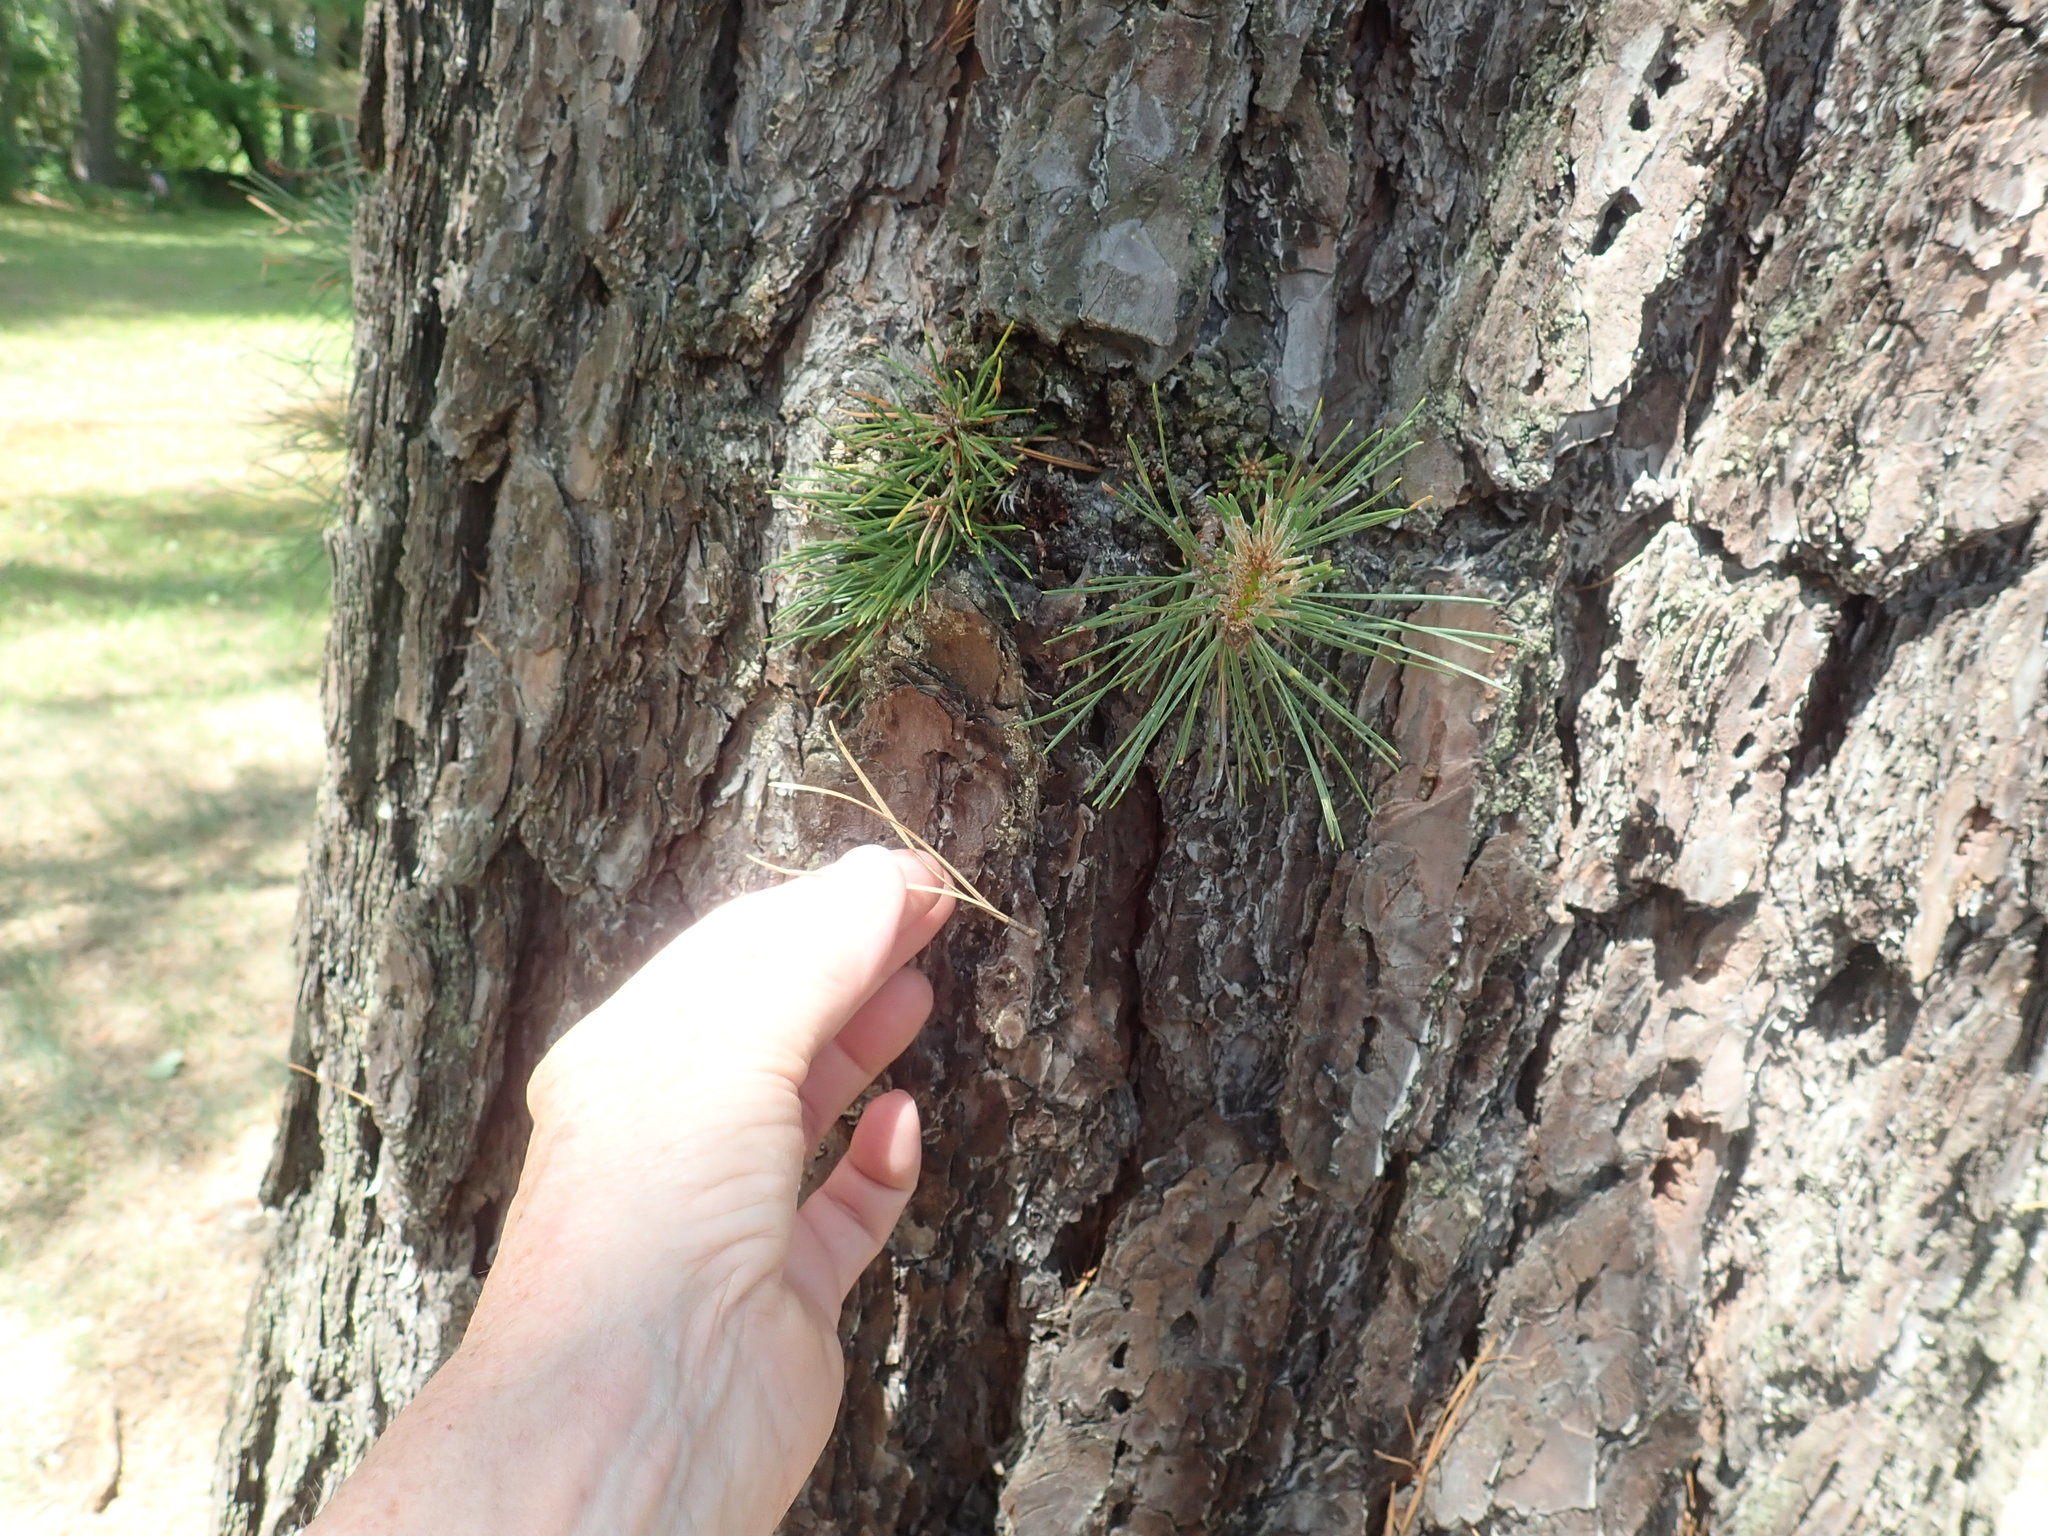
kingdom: Plantae
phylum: Tracheophyta
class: Pinopsida
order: Pinales
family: Pinaceae
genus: Pinus
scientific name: Pinus rigida
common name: Pitch pine
